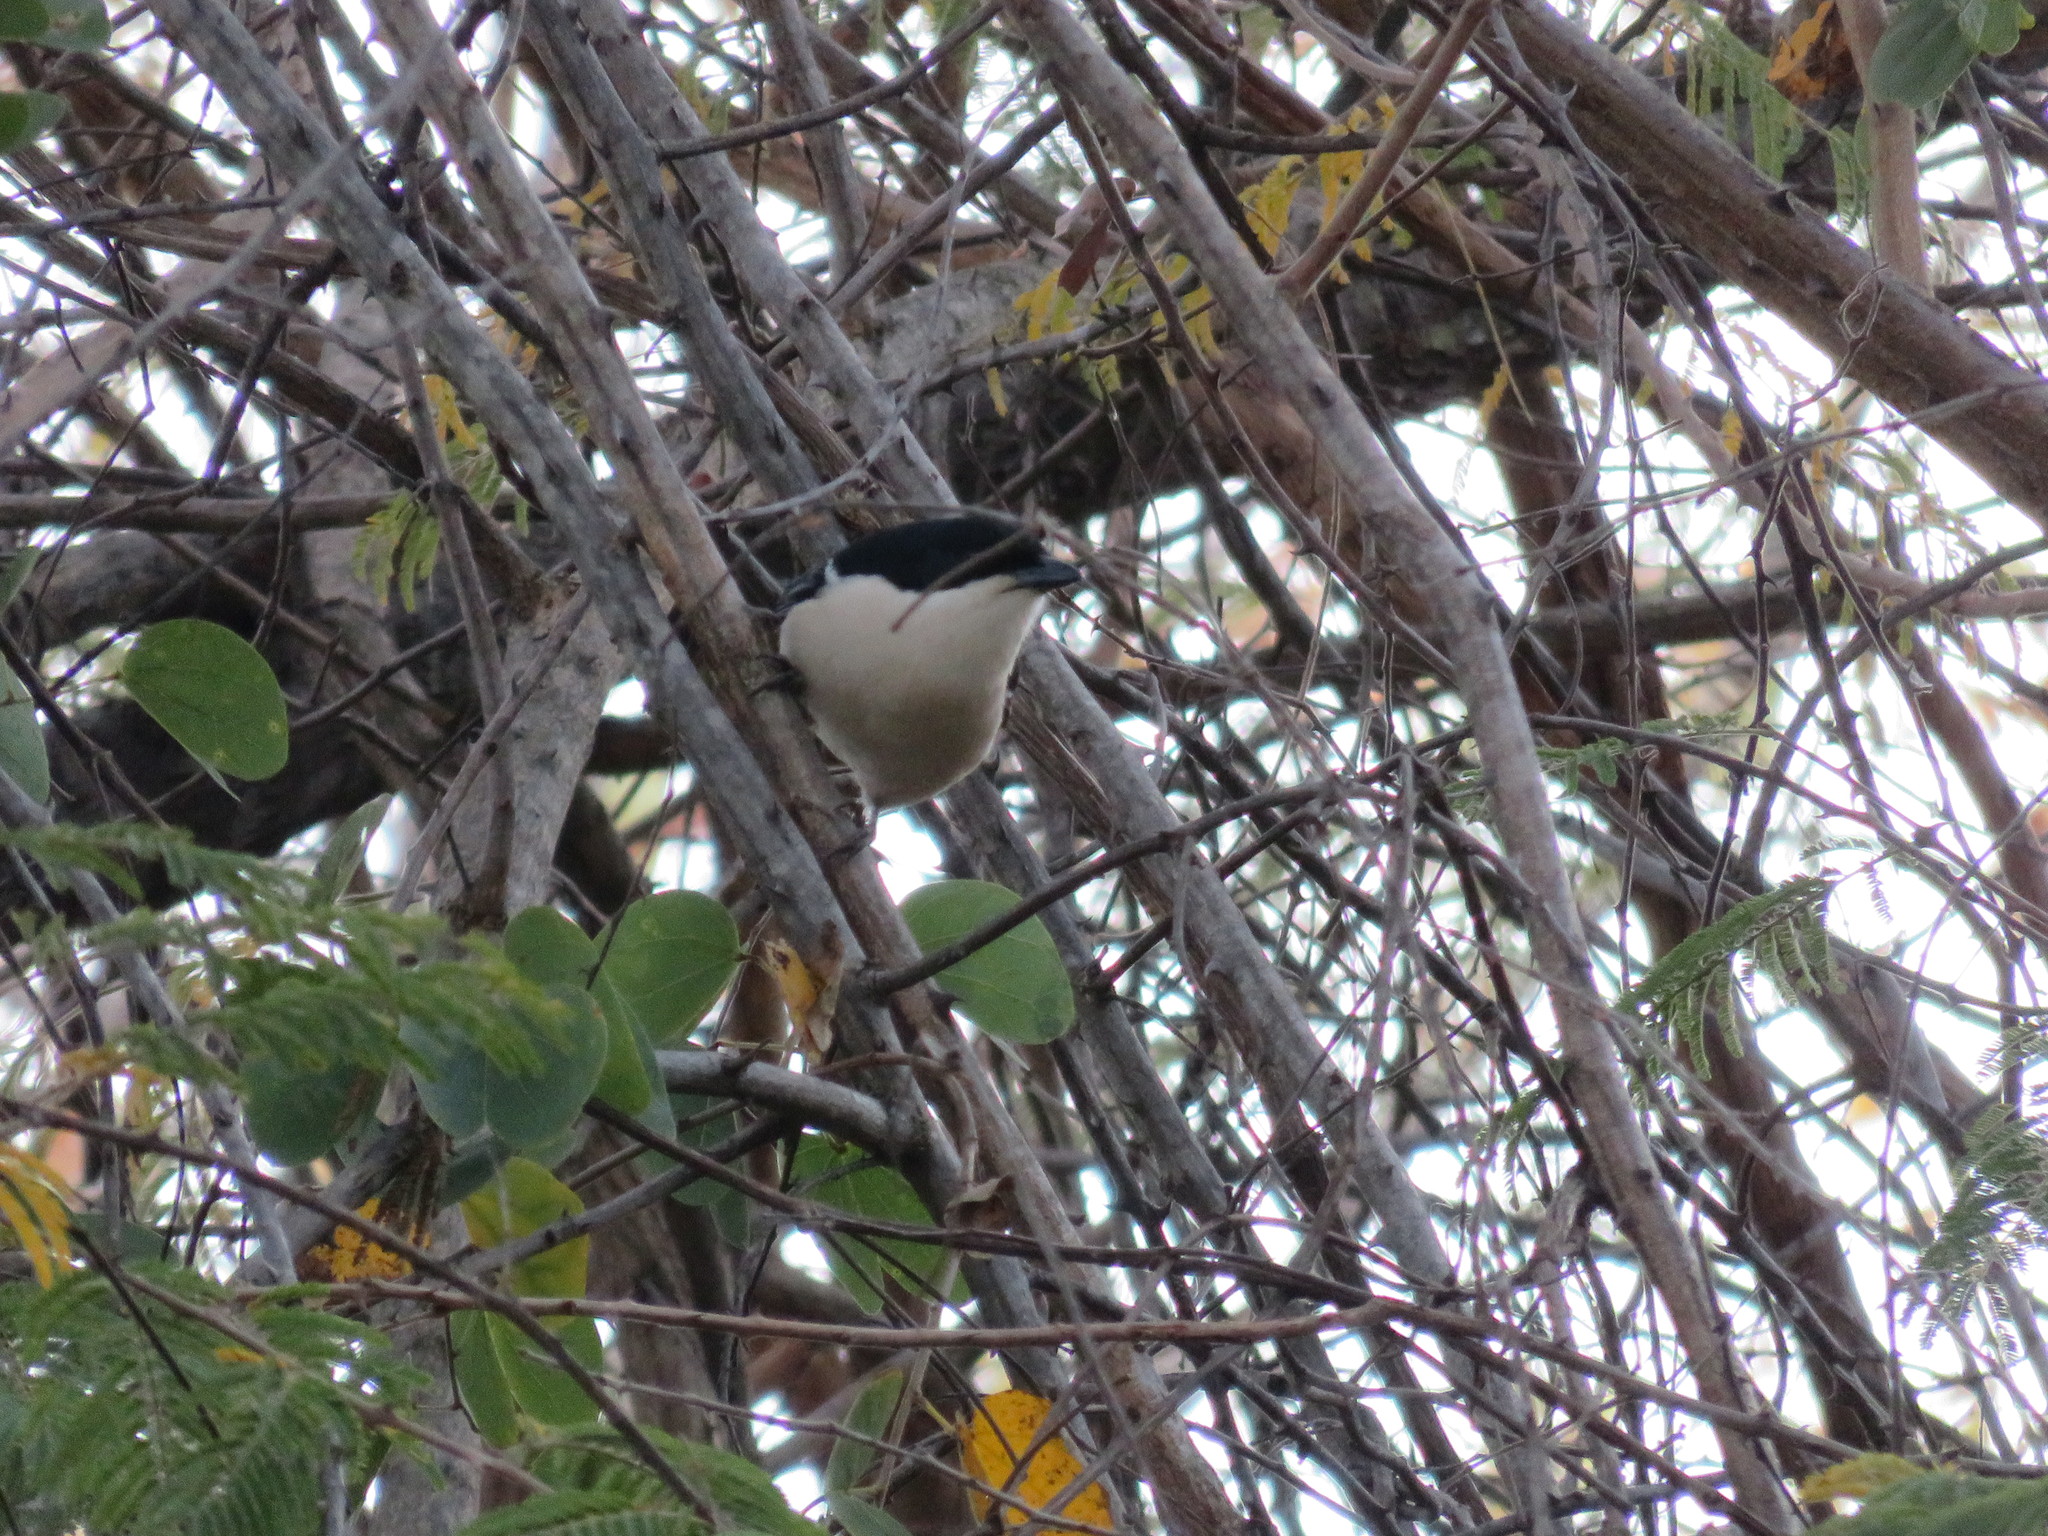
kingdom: Animalia
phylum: Chordata
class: Aves
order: Passeriformes
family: Malaconotidae
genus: Laniarius
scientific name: Laniarius major
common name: Tropical boubou
